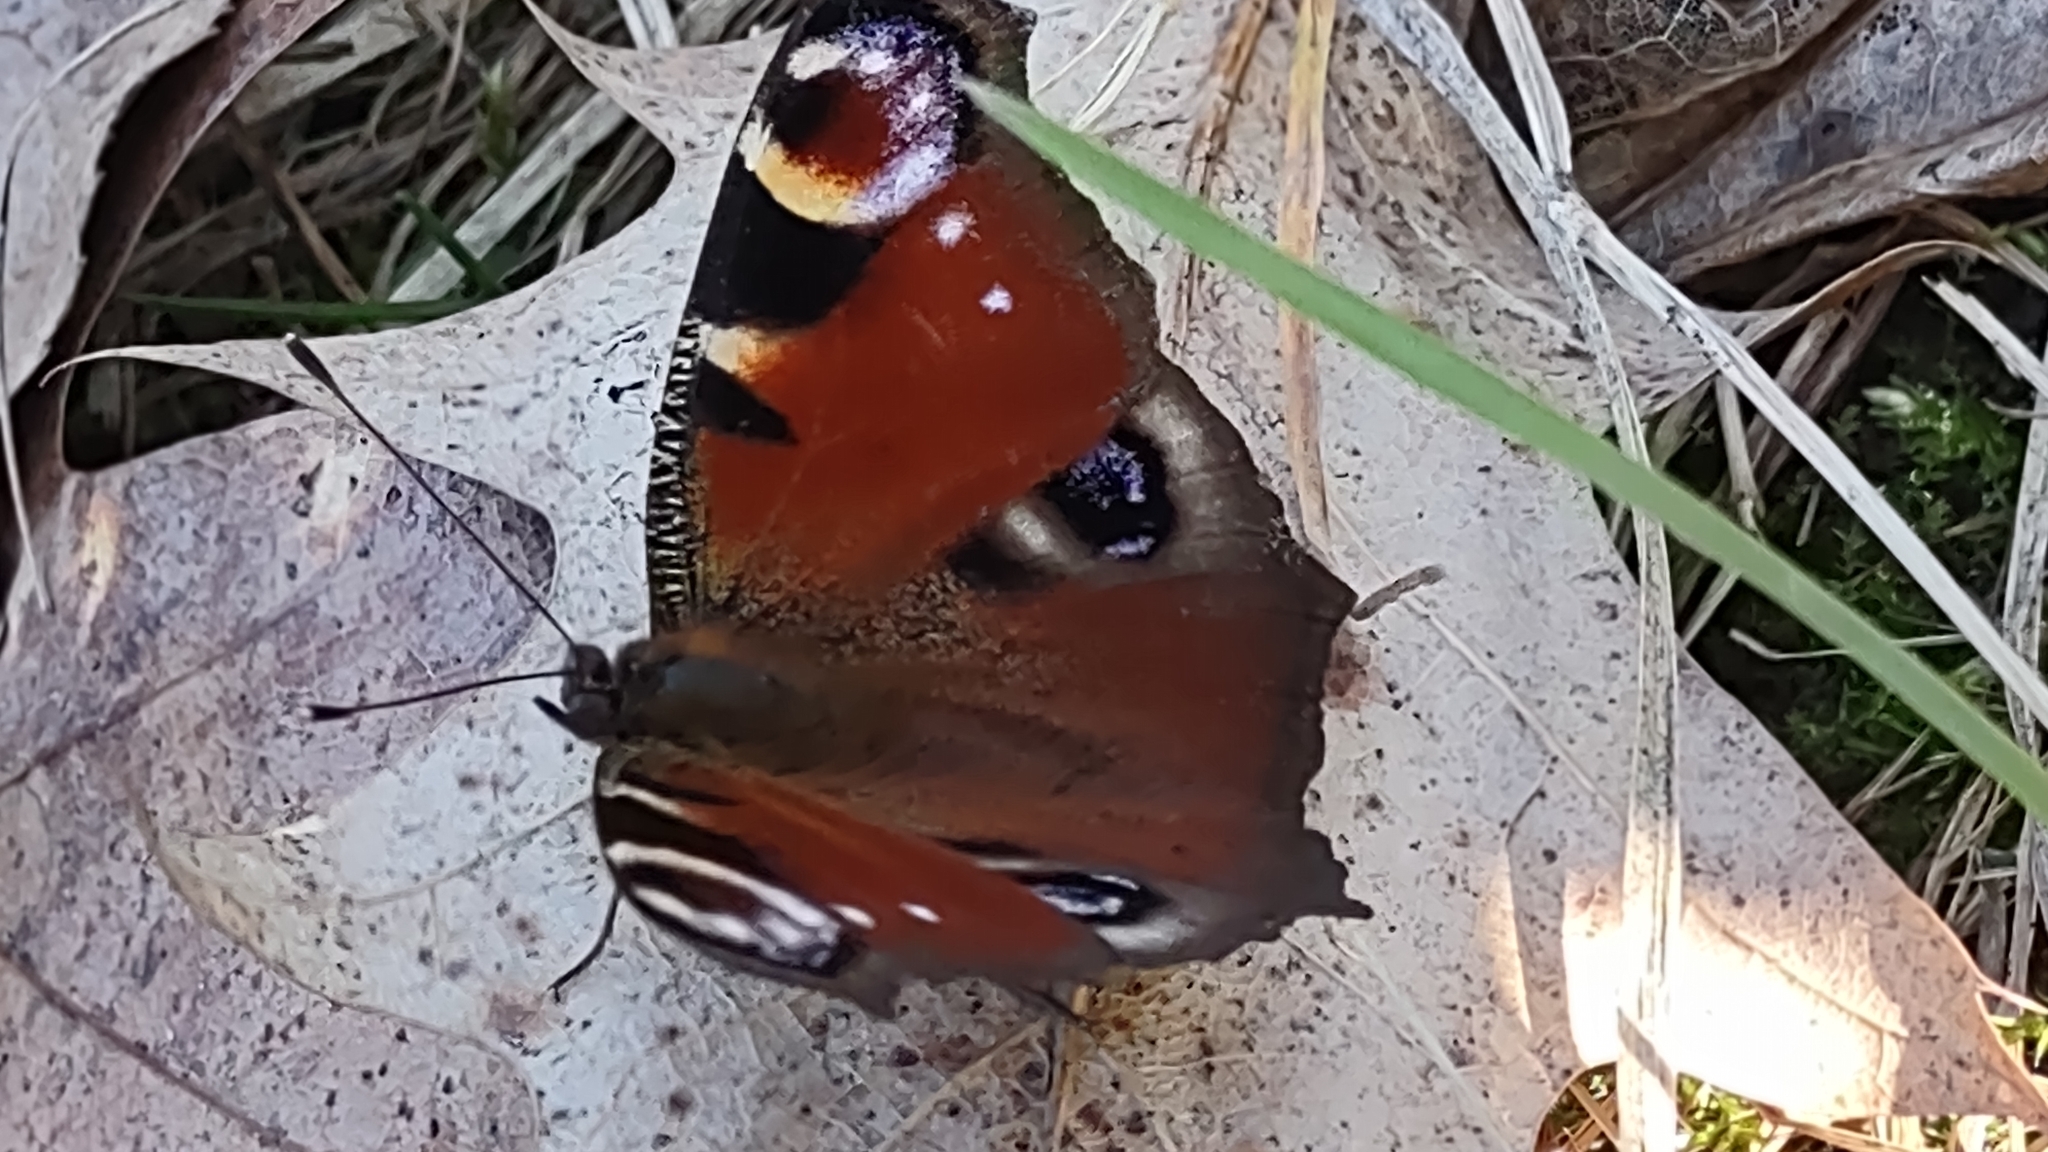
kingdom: Animalia
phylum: Arthropoda
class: Insecta
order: Lepidoptera
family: Nymphalidae
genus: Aglais
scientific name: Aglais io
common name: Peacock
